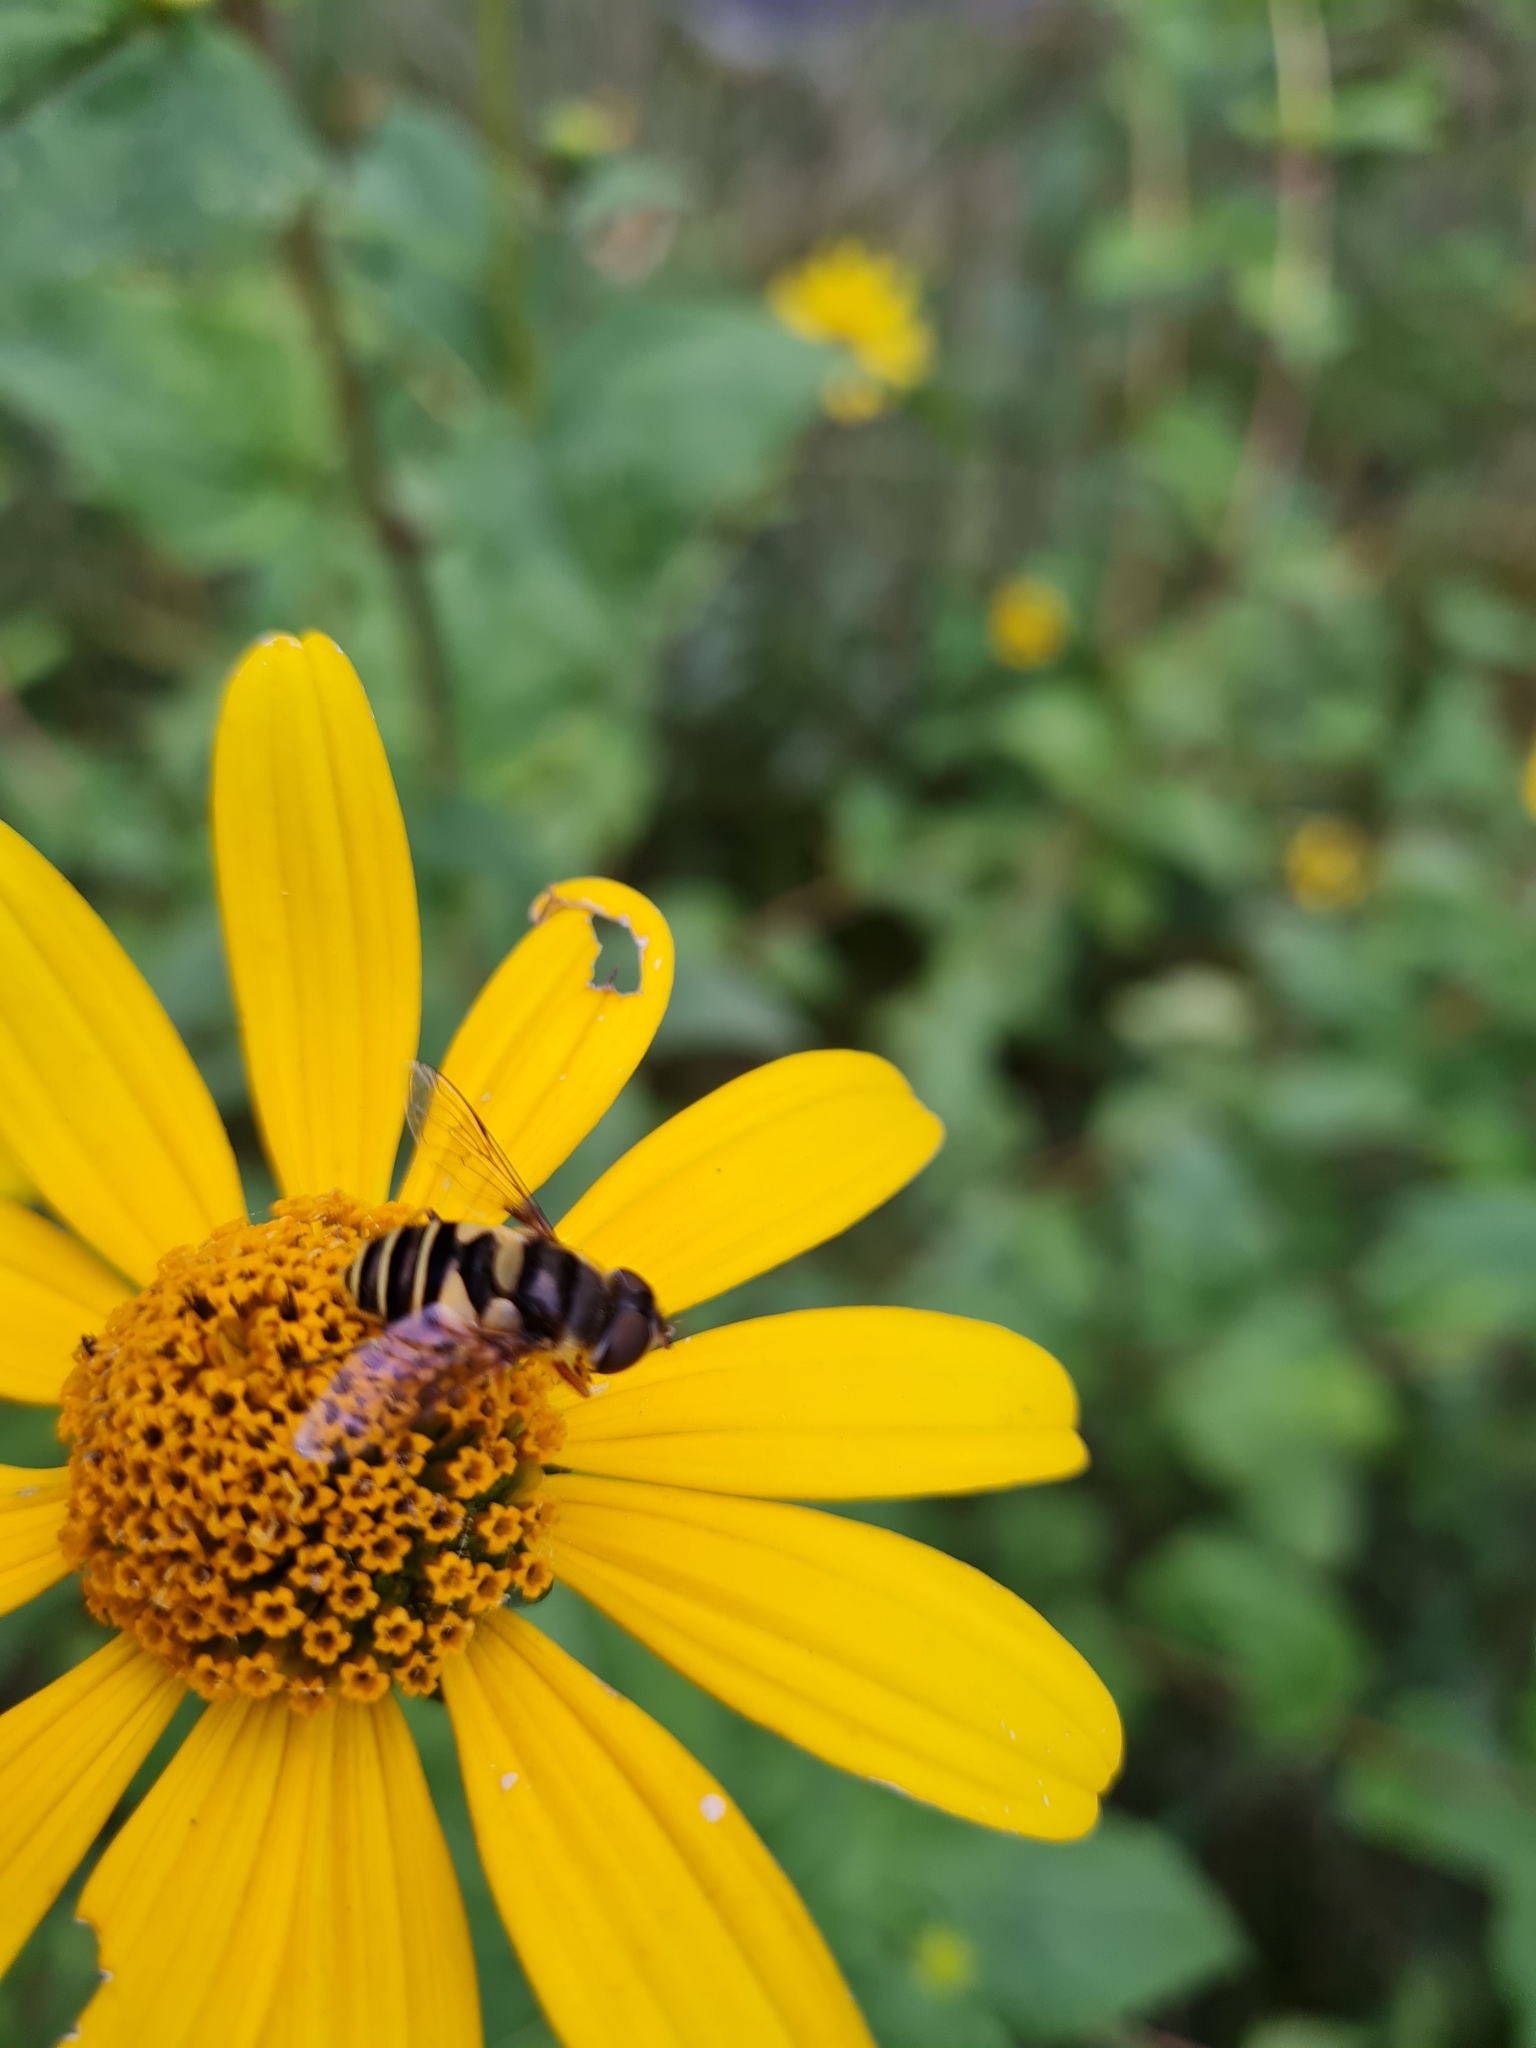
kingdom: Animalia
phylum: Arthropoda
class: Insecta
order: Diptera
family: Syrphidae
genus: Eristalis
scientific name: Eristalis transversa
